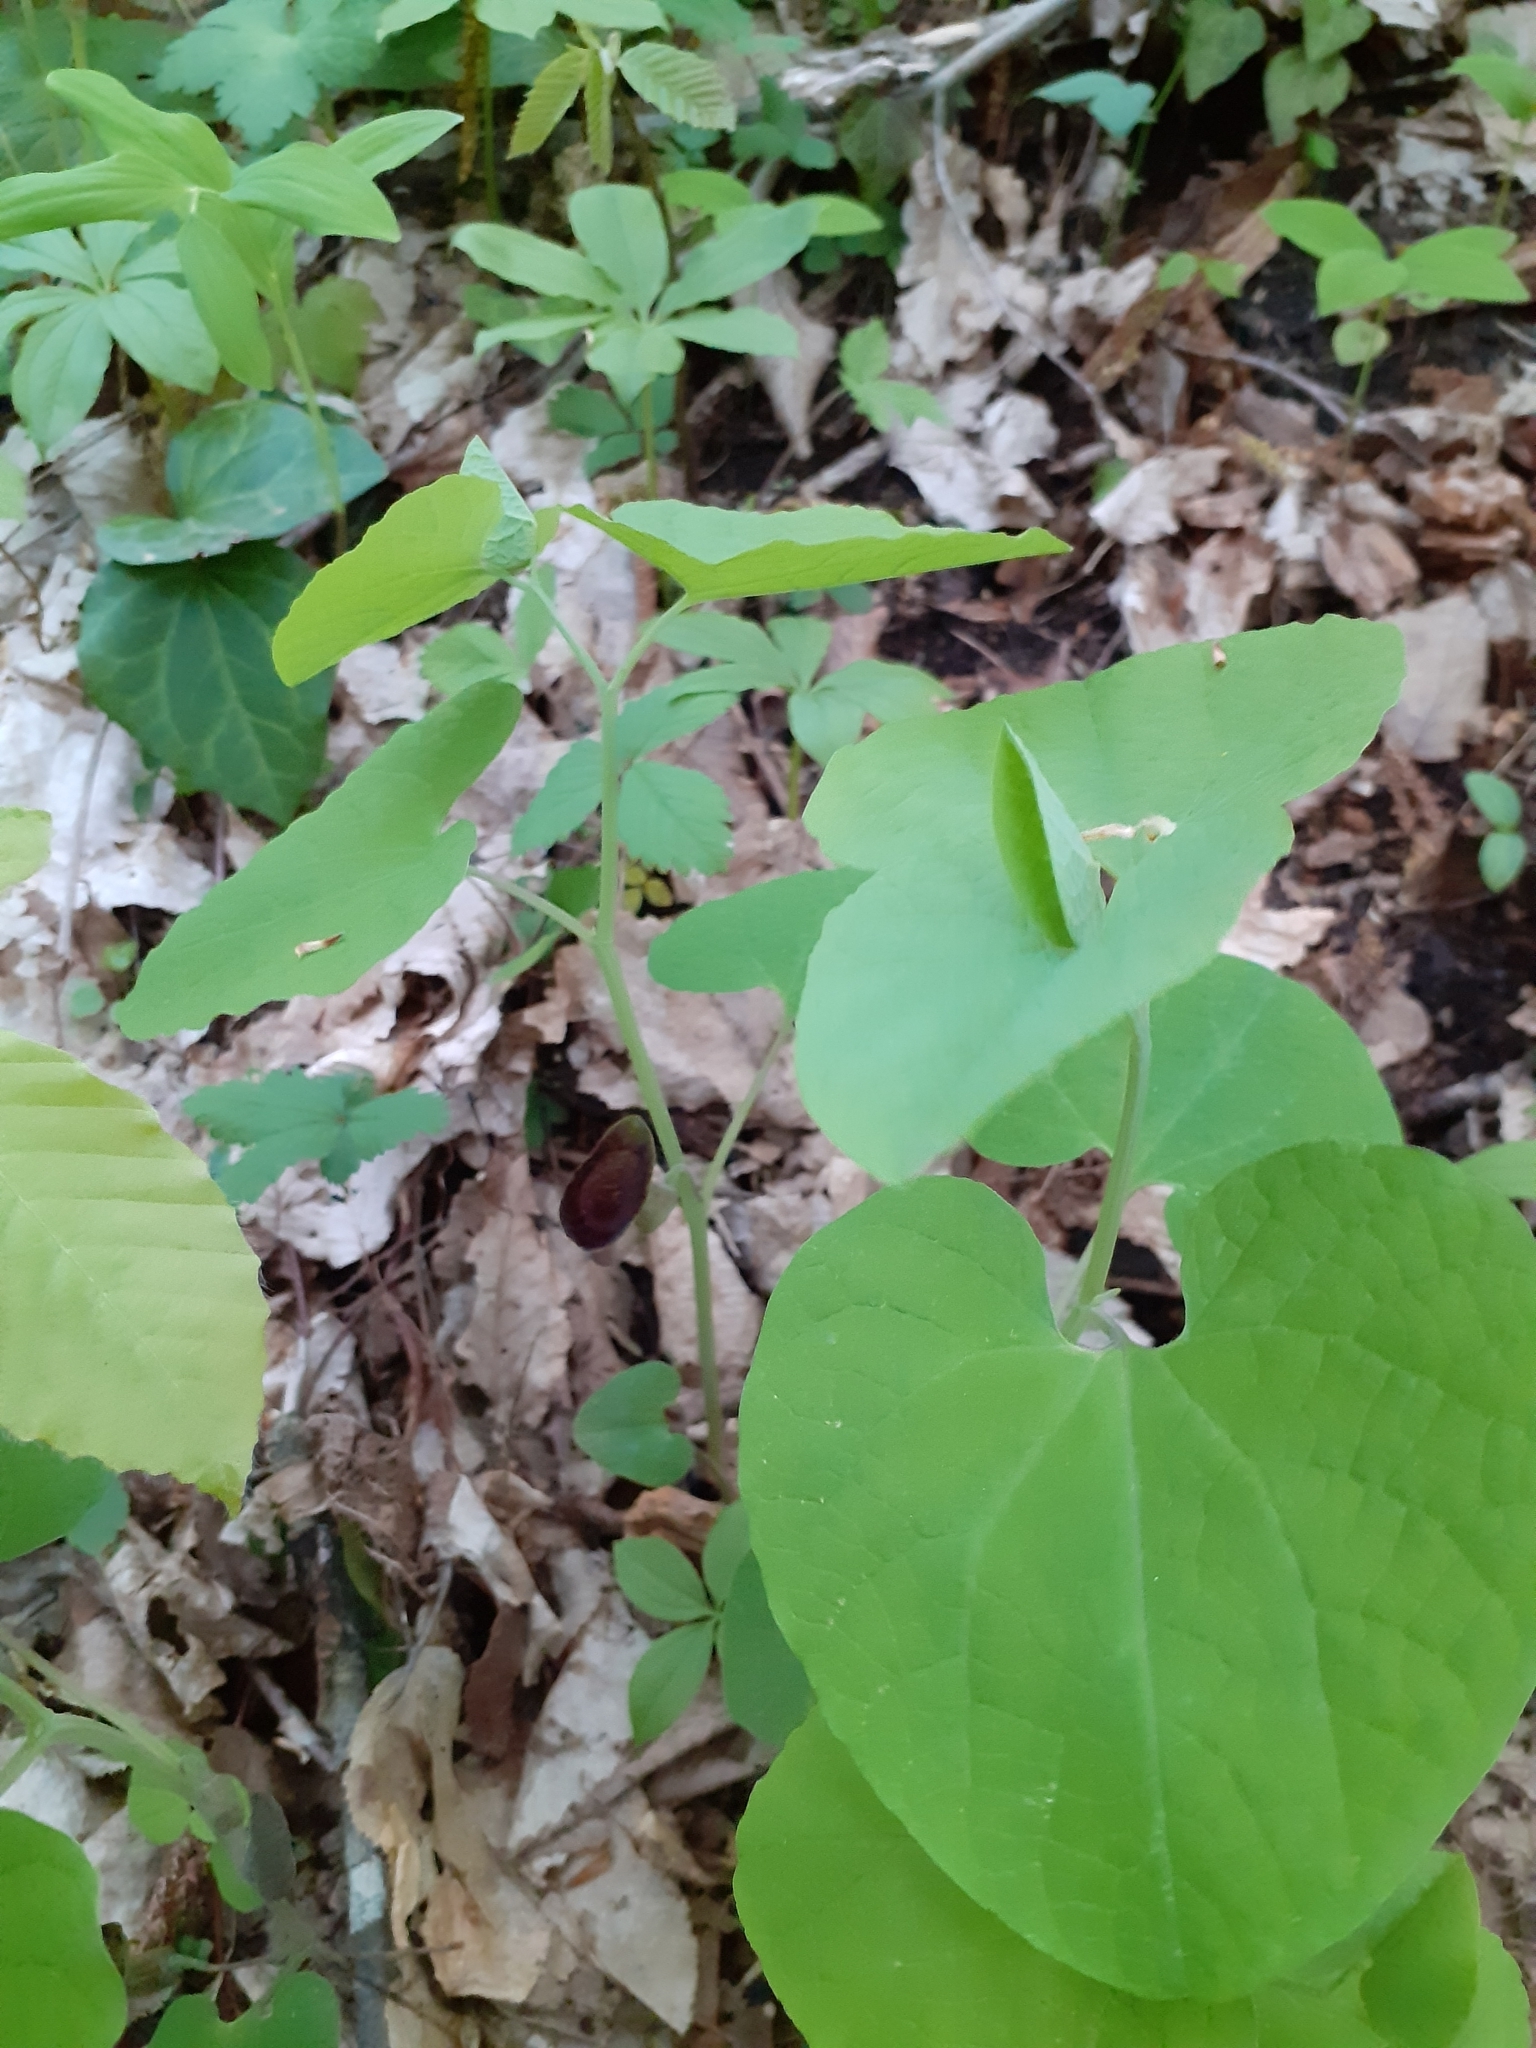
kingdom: Plantae
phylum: Tracheophyta
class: Magnoliopsida
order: Piperales
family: Aristolochiaceae
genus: Aristolochia
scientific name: Aristolochia steupii
